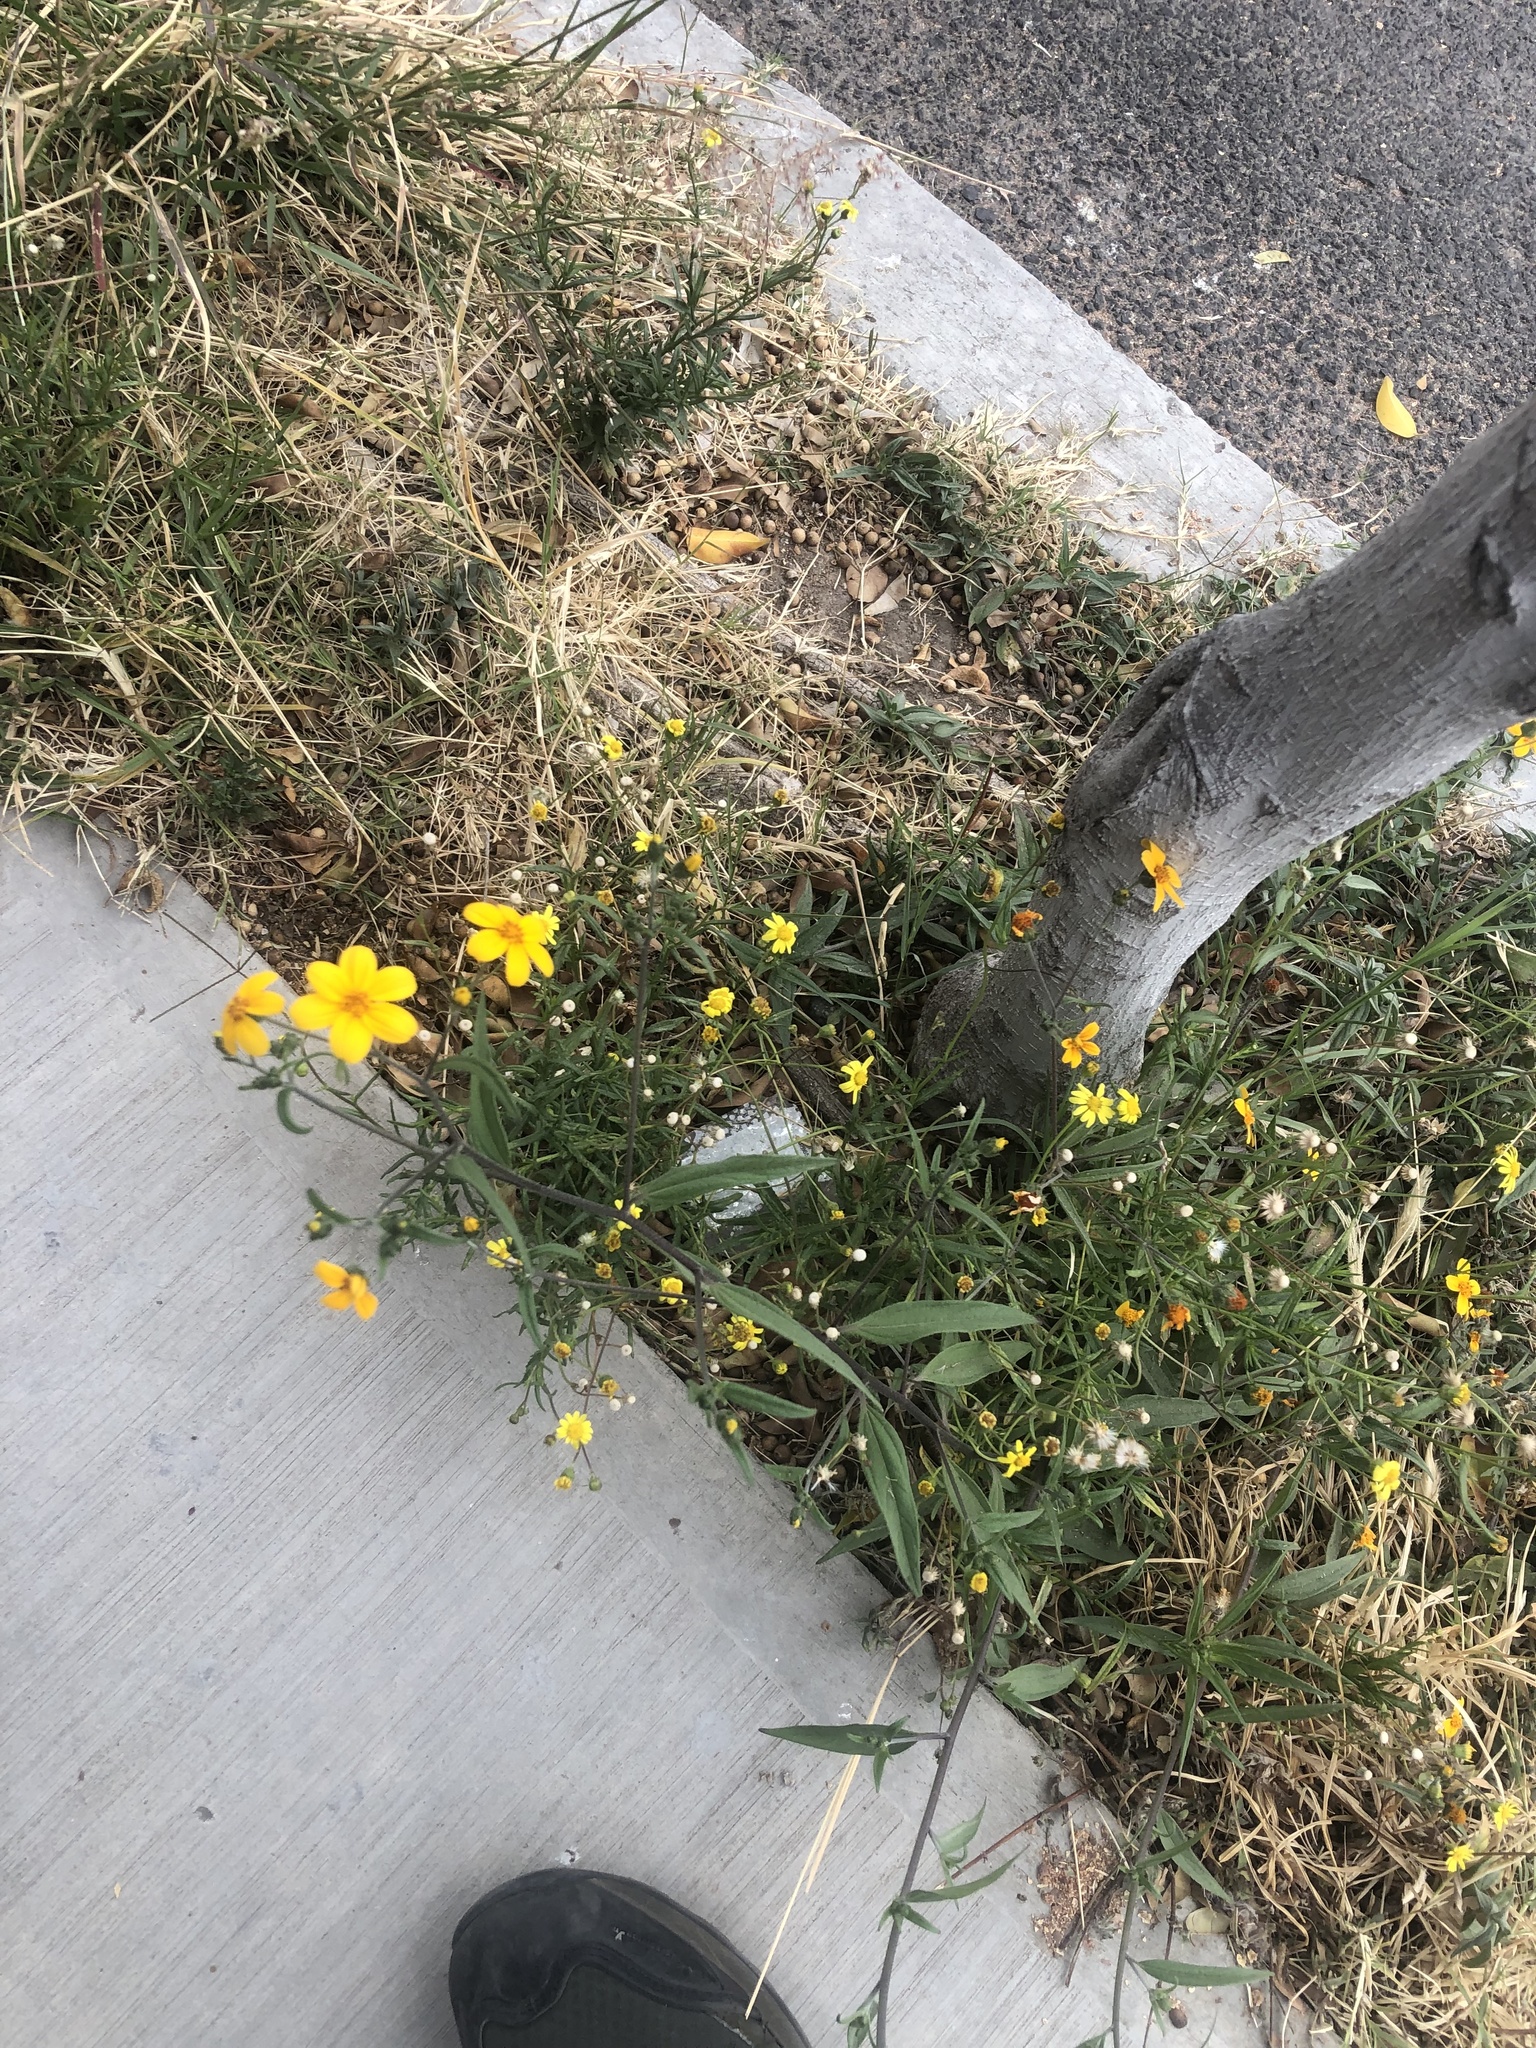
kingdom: Plantae
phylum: Tracheophyta
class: Magnoliopsida
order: Asterales
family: Asteraceae
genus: Aldama
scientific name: Aldama dentata
